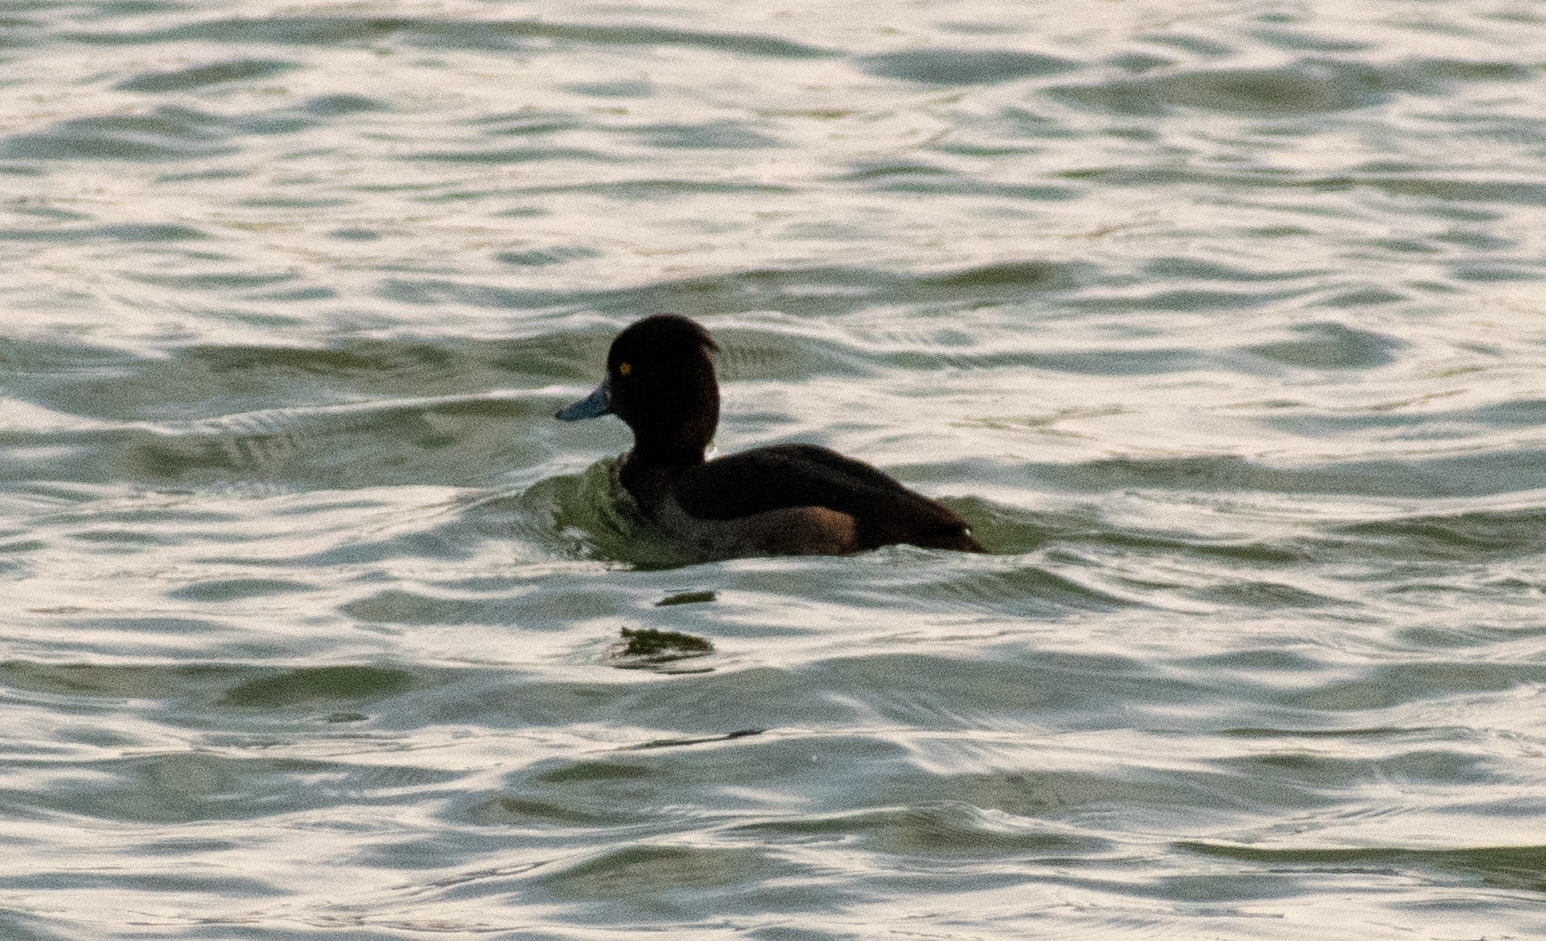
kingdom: Animalia
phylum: Chordata
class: Aves
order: Anseriformes
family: Anatidae
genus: Aythya
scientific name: Aythya fuligula
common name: Tufted duck
